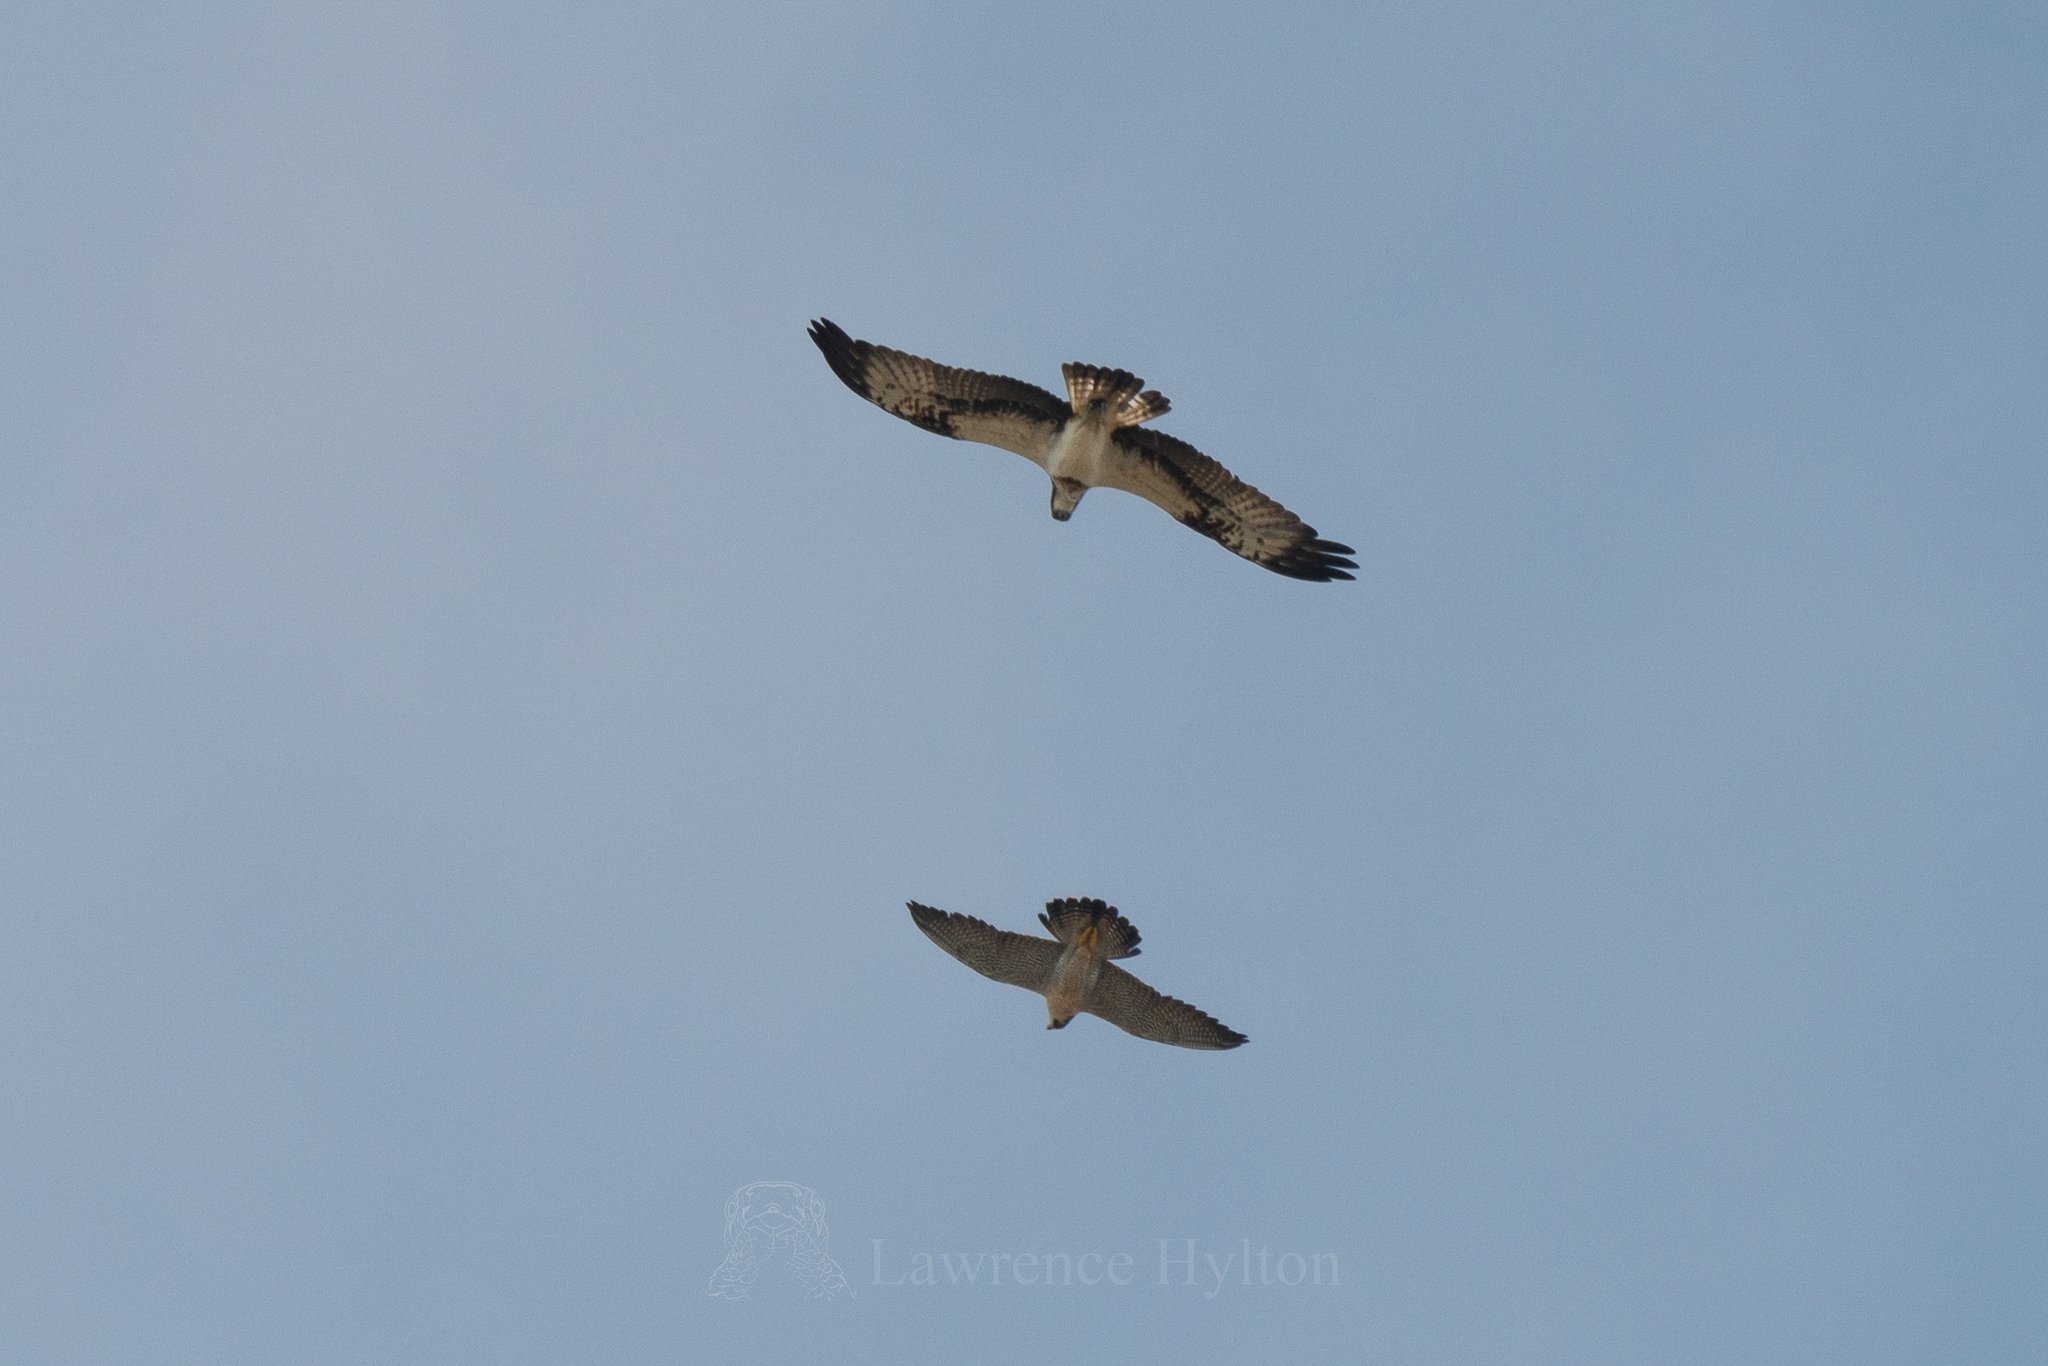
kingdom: Animalia
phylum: Chordata
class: Aves
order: Accipitriformes
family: Pandionidae
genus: Pandion
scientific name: Pandion haliaetus
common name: Osprey
